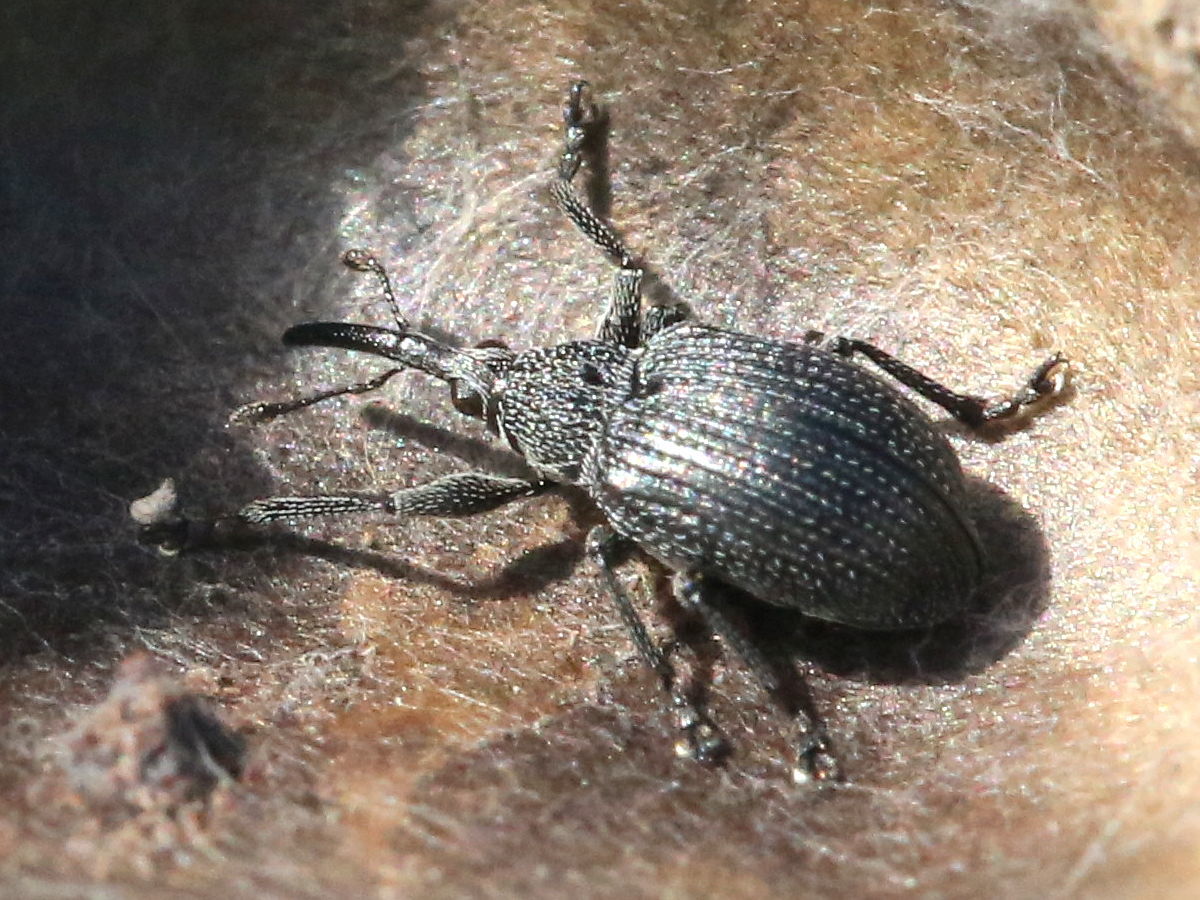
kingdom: Animalia
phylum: Arthropoda
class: Insecta
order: Coleoptera
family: Brentidae
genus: Trichapion
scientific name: Trichapion
